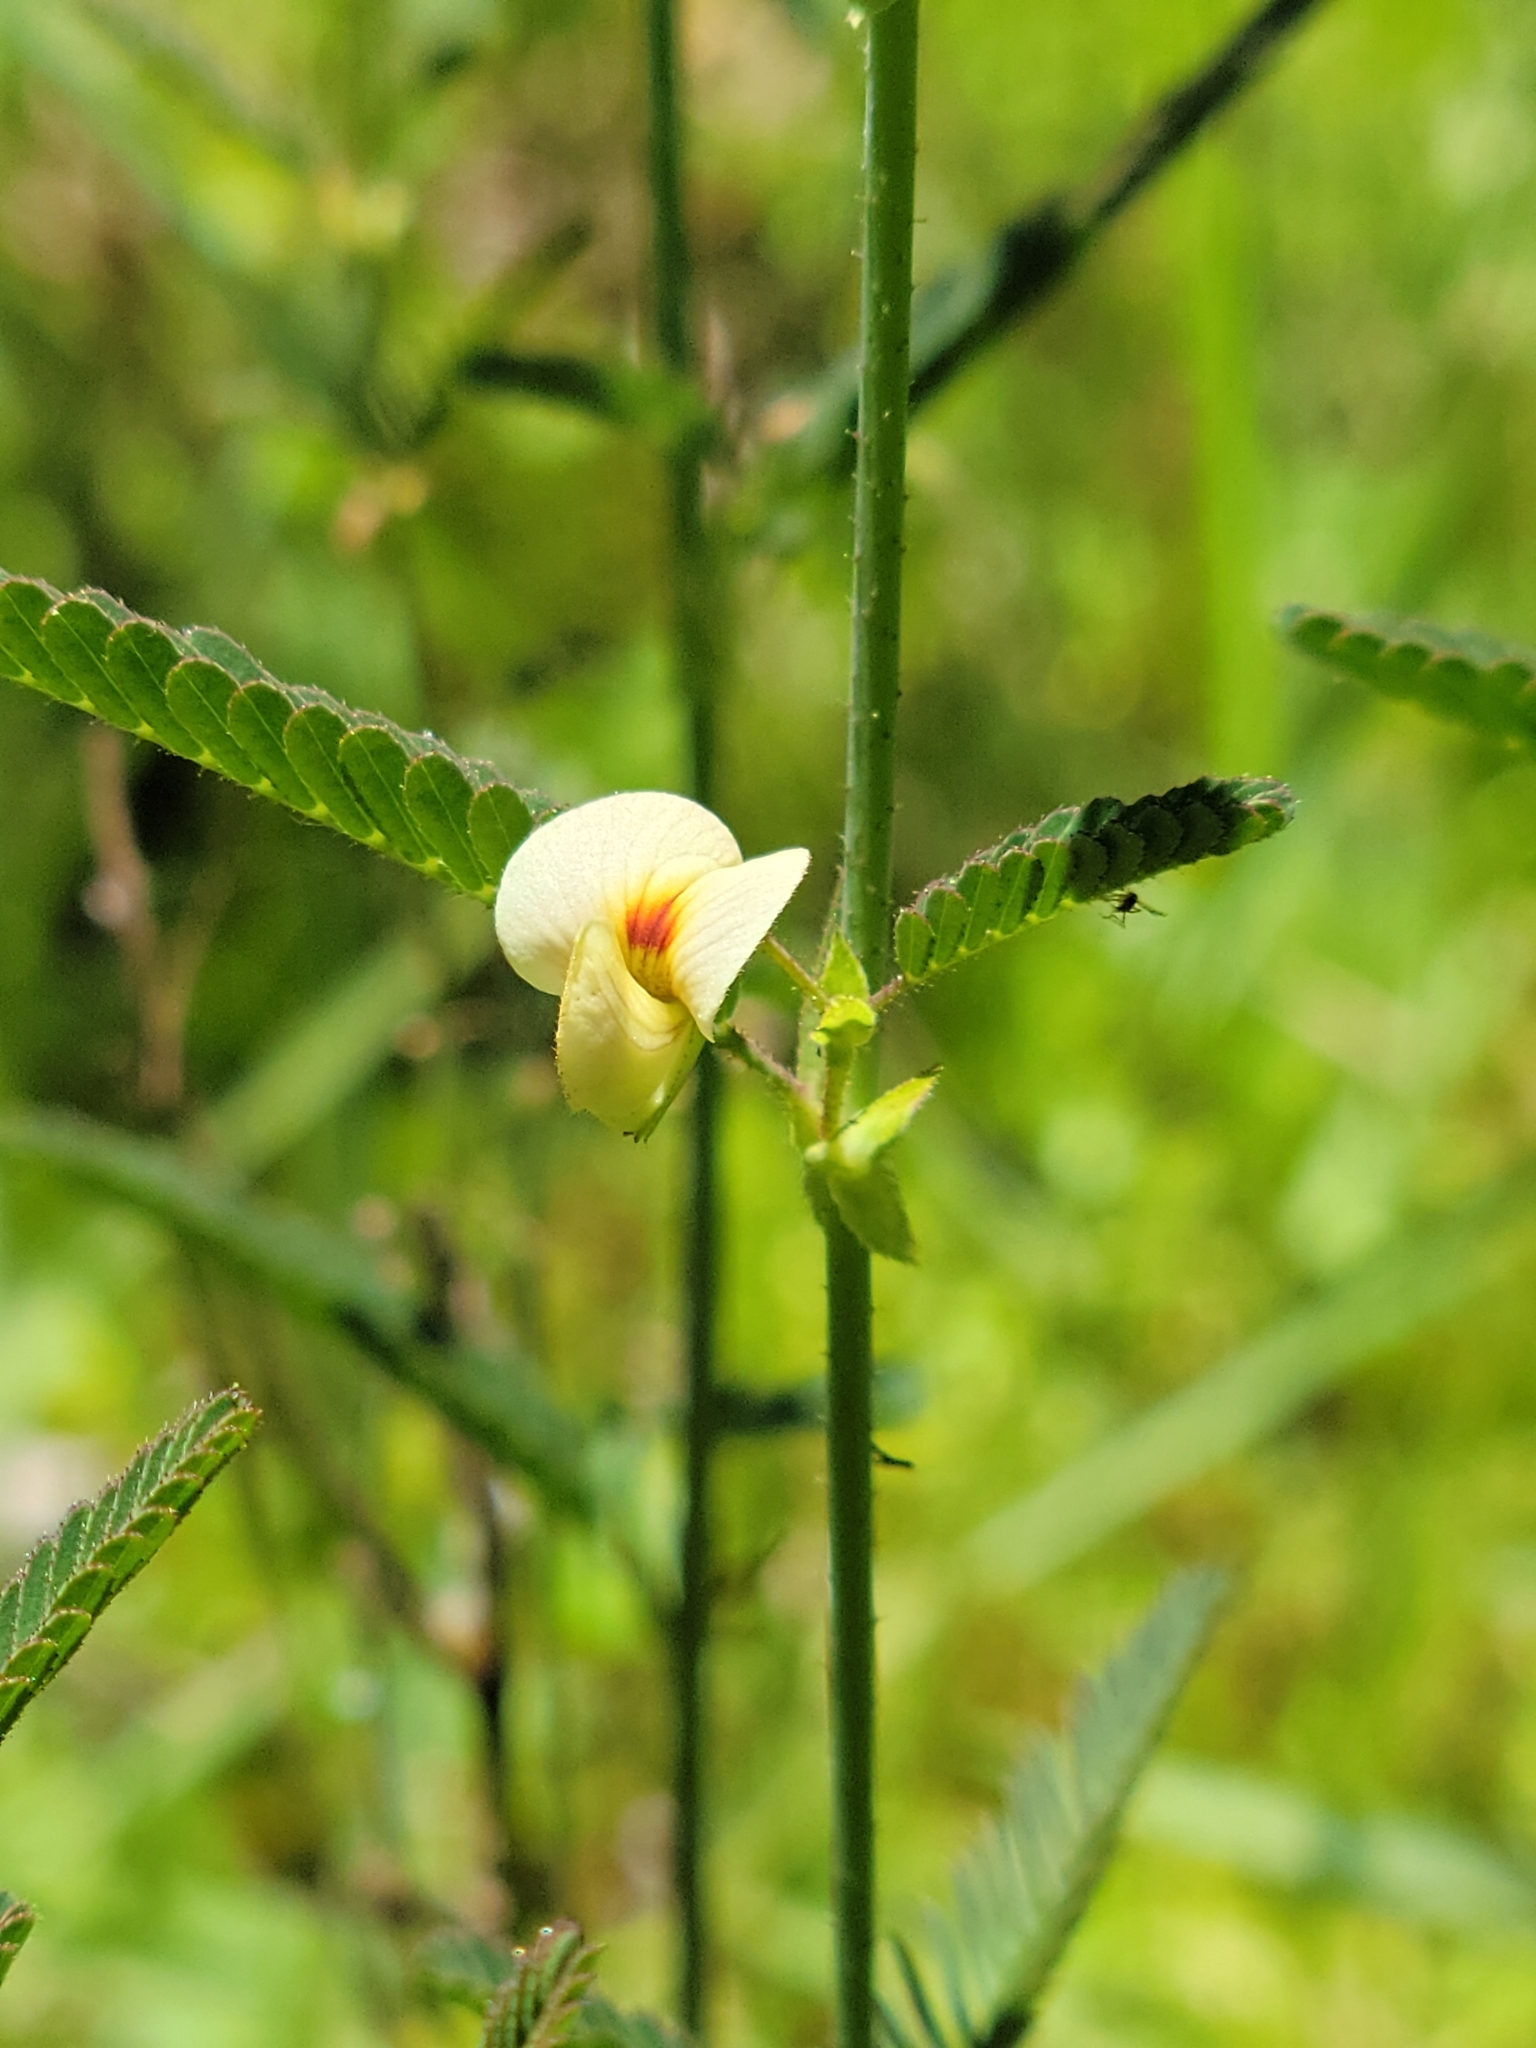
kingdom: Plantae
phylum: Tracheophyta
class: Magnoliopsida
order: Fabales
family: Fabaceae
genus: Aeschynomene
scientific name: Aeschynomene indica
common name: Indian jointvetch
